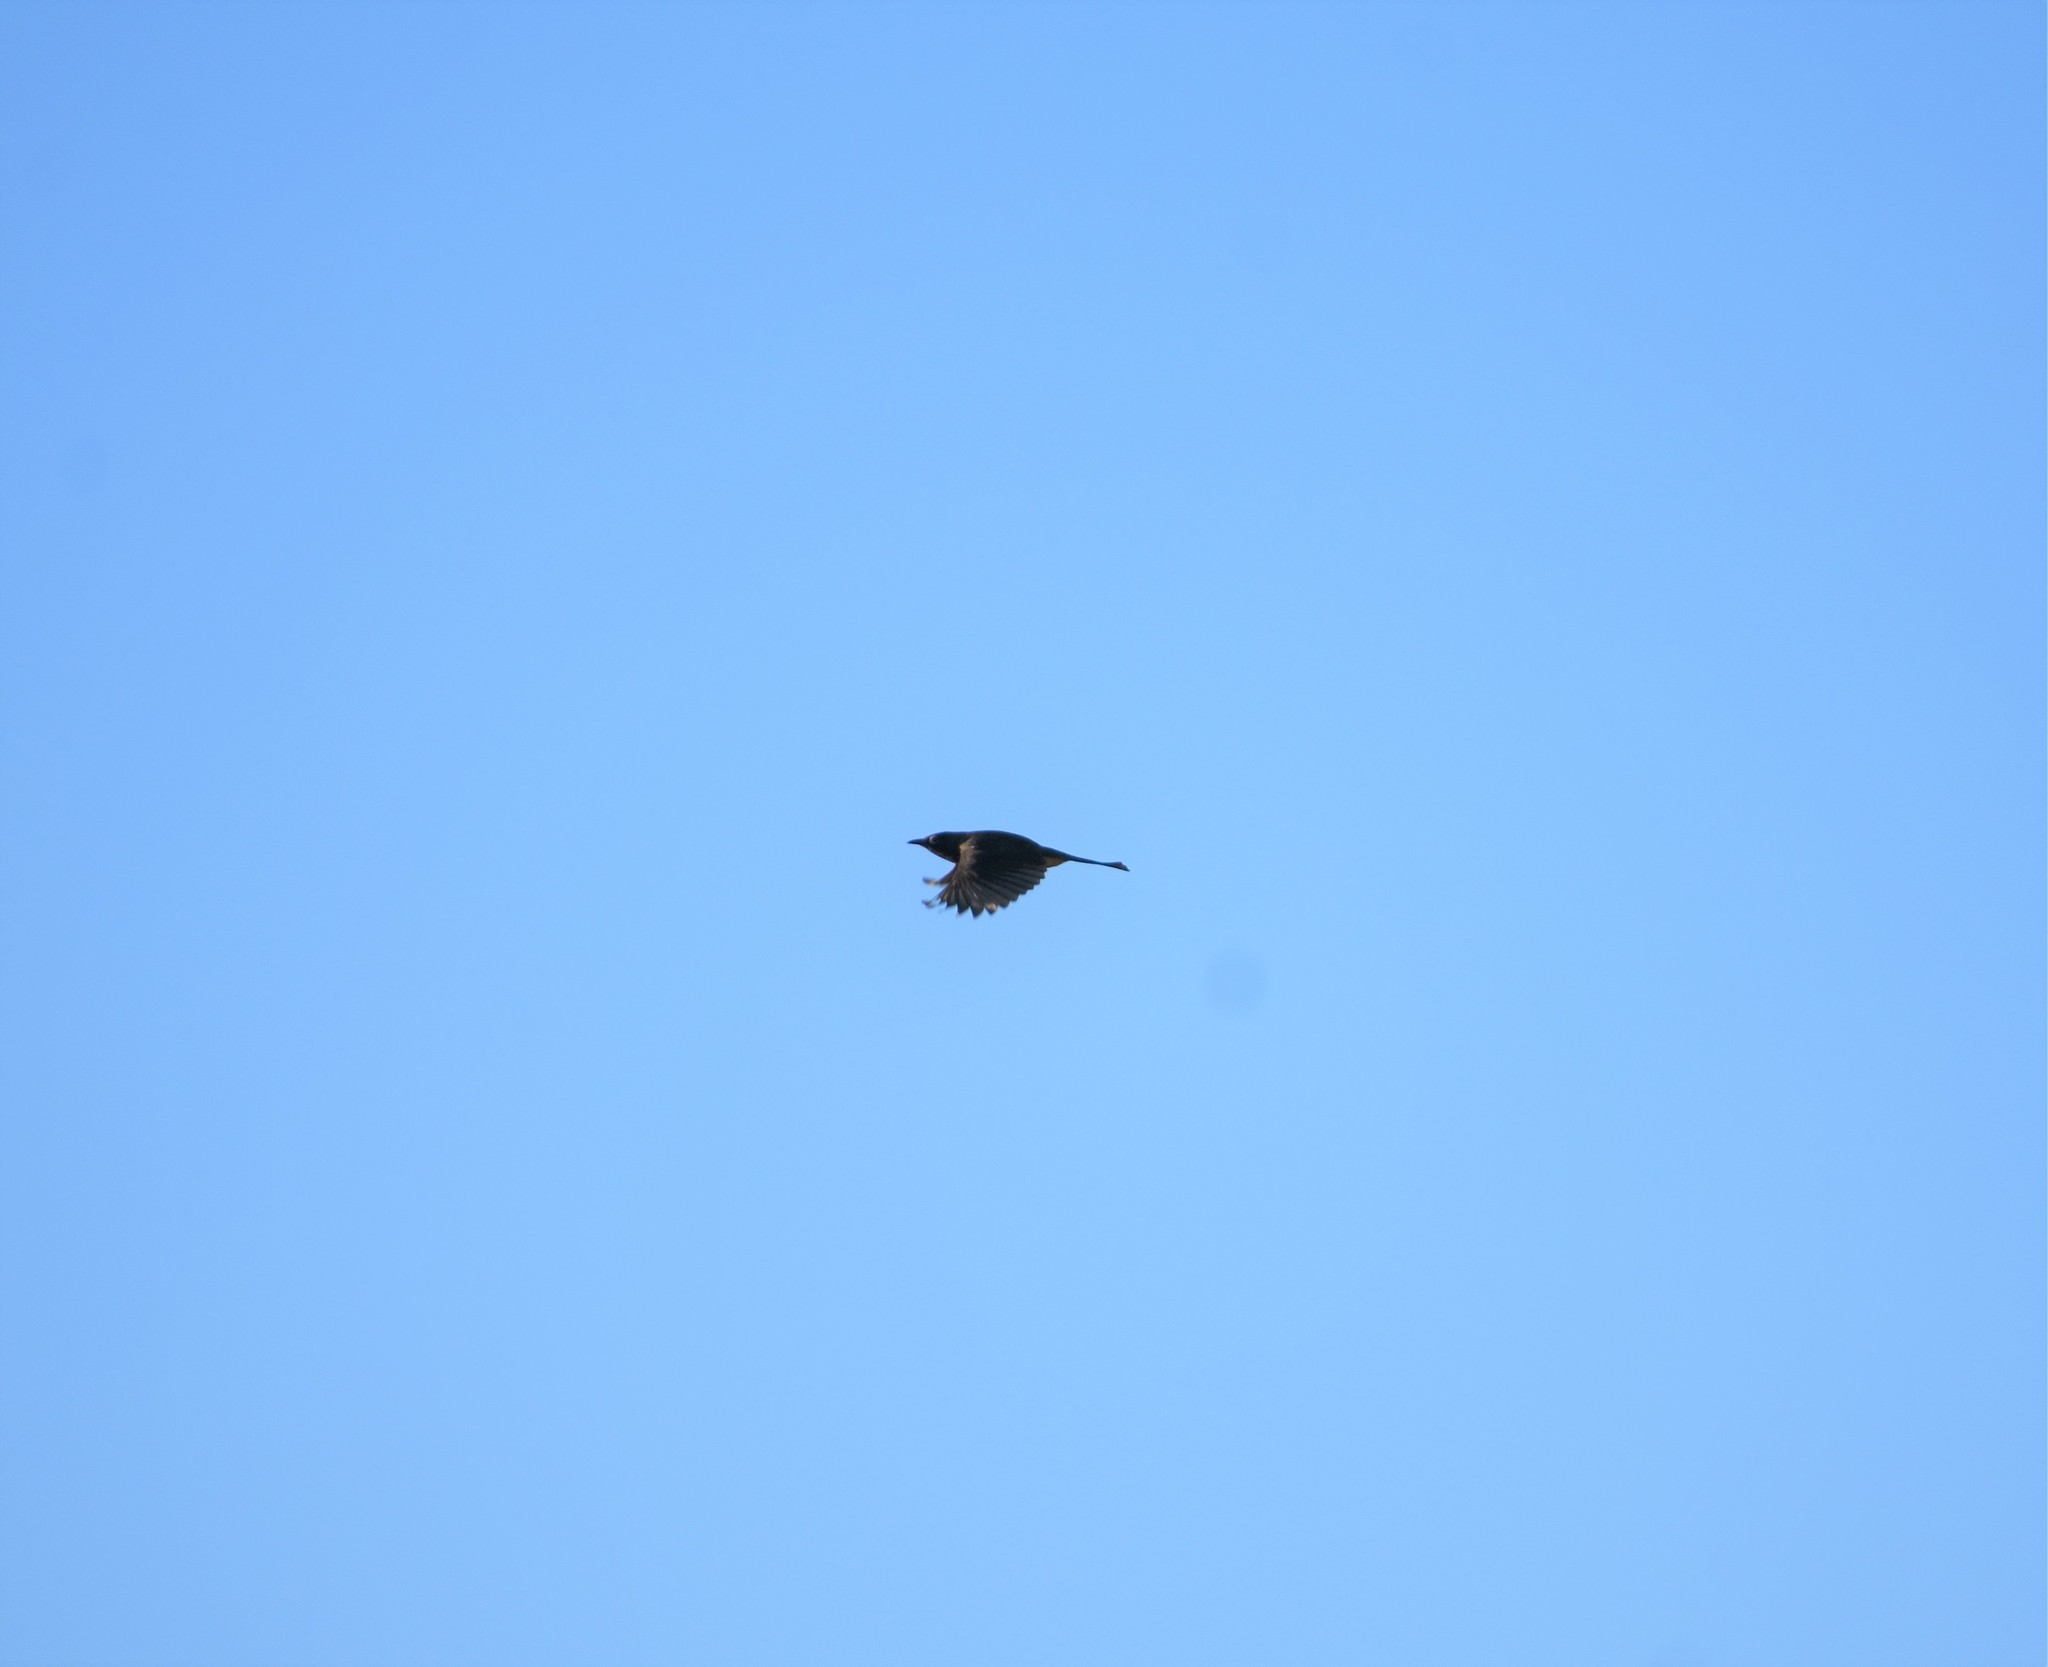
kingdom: Animalia
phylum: Chordata
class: Aves
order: Passeriformes
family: Pycnonotidae
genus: Pycnonotus
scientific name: Pycnonotus capensis
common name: Cape bulbul
